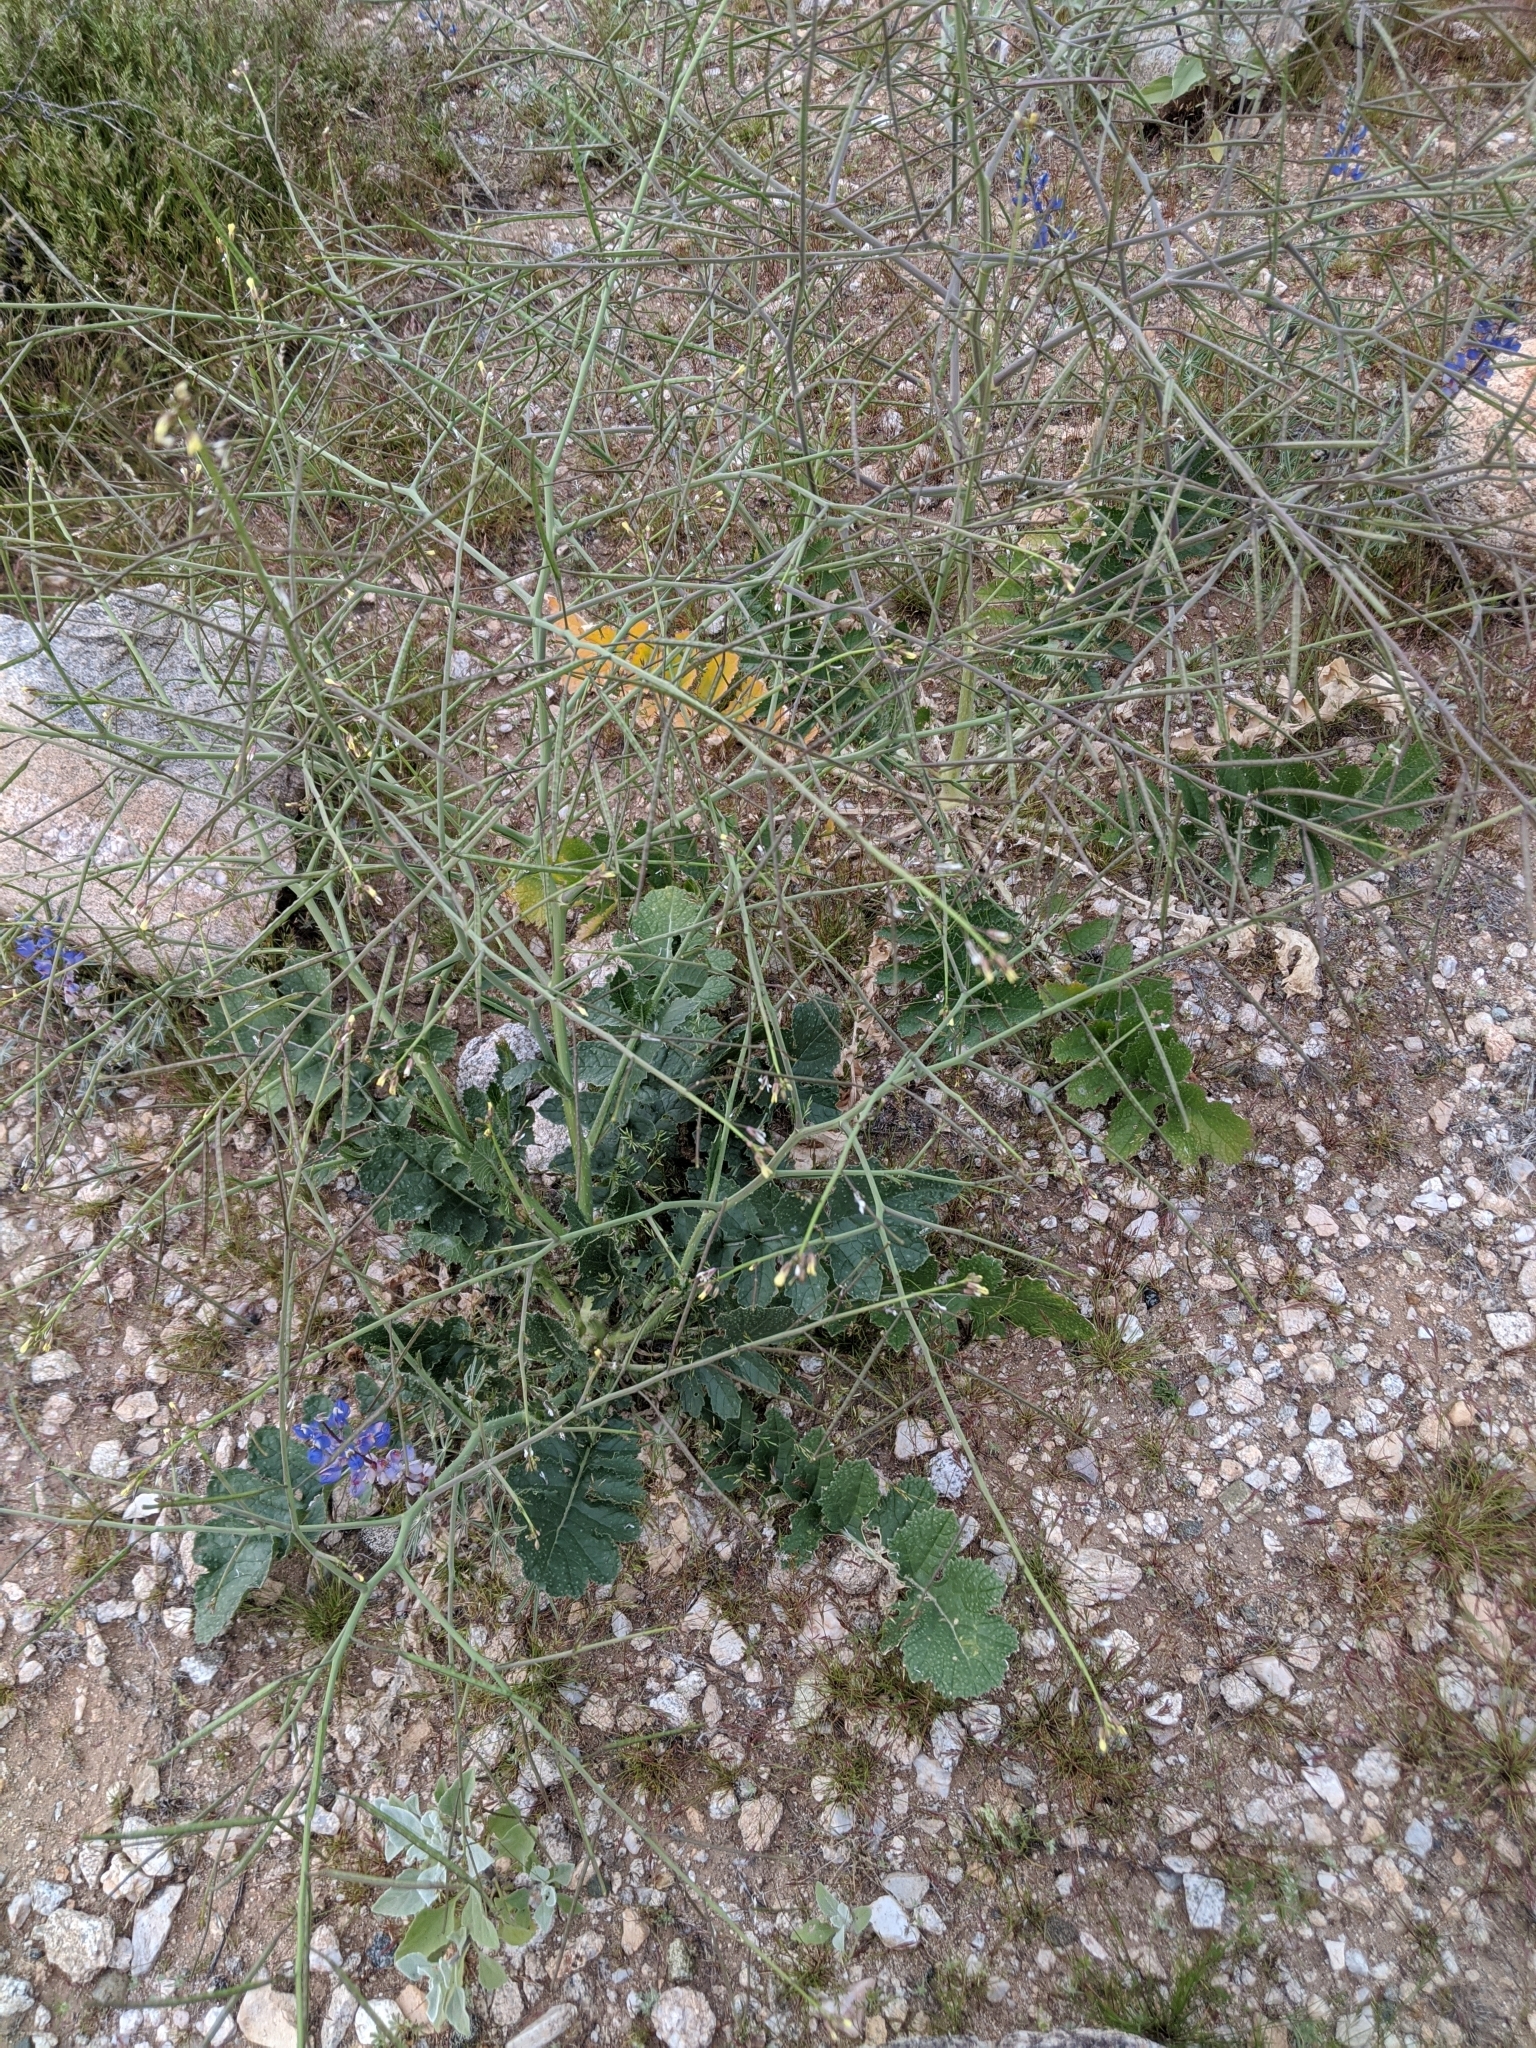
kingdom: Plantae
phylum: Tracheophyta
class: Magnoliopsida
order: Brassicales
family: Brassicaceae
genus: Brassica
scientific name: Brassica tournefortii
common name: Pale cabbage
